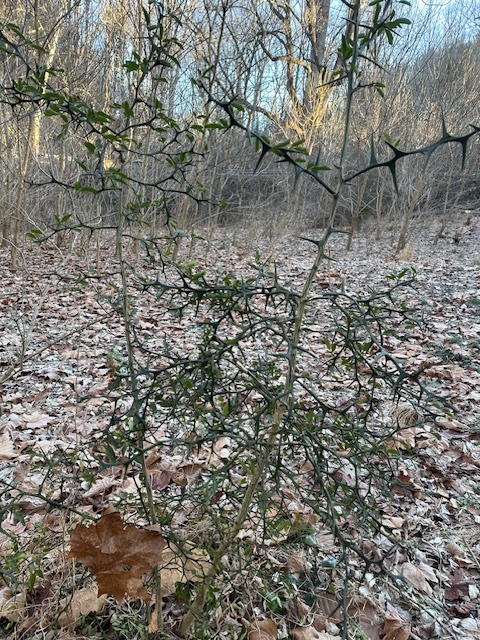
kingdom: Plantae
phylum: Tracheophyta
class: Magnoliopsida
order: Sapindales
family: Rutaceae
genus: Citrus
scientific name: Citrus trifoliata
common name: Japanese bitter-orange
